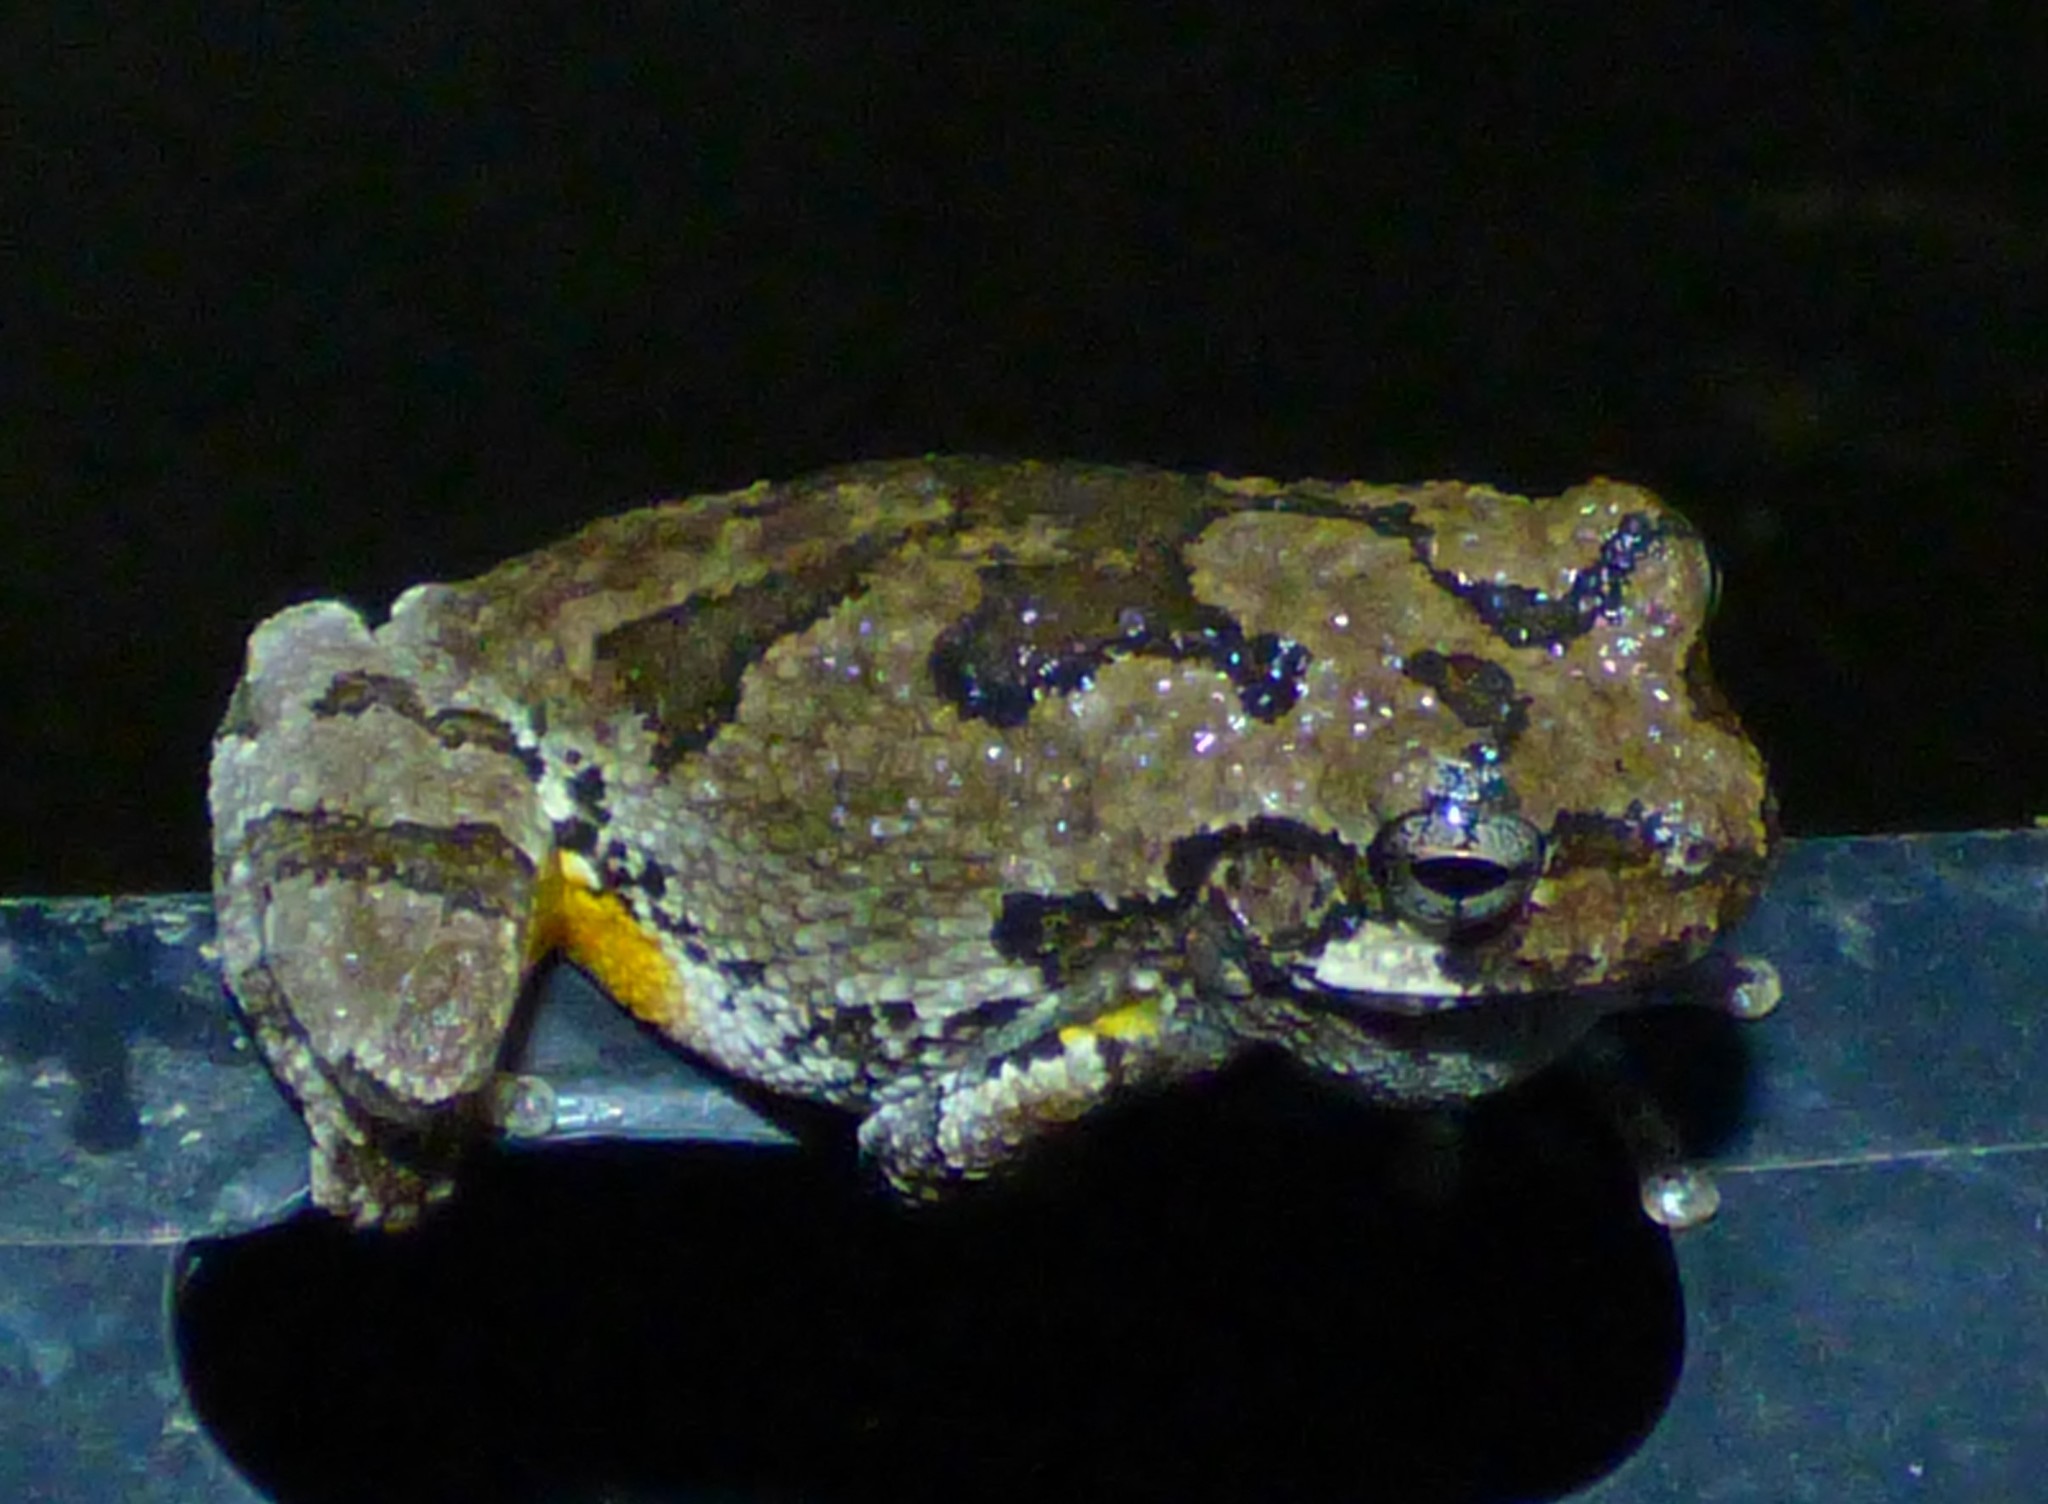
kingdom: Animalia
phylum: Chordata
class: Amphibia
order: Anura
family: Hylidae
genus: Dryophytes
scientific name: Dryophytes chrysoscelis
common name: Cope's gray treefrog
